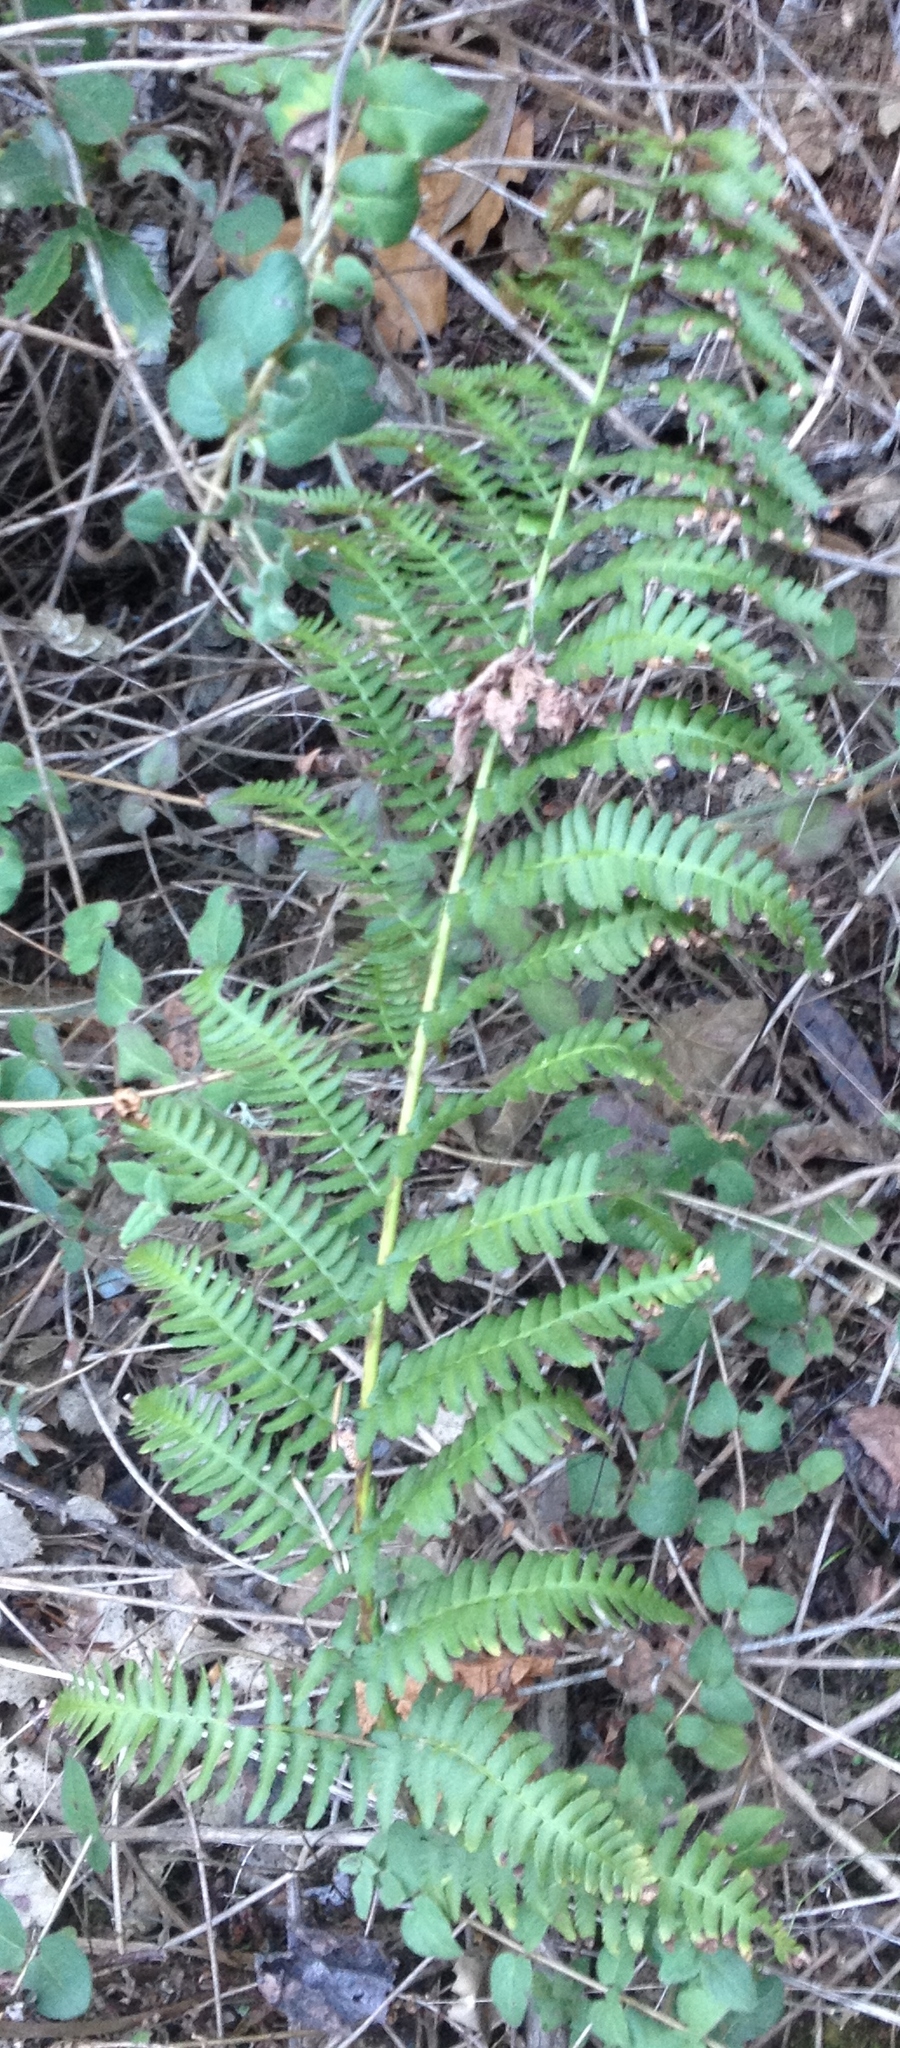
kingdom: Plantae
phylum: Tracheophyta
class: Polypodiopsida
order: Polypodiales
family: Dryopteridaceae
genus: Dryopteris
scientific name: Dryopteris arguta
